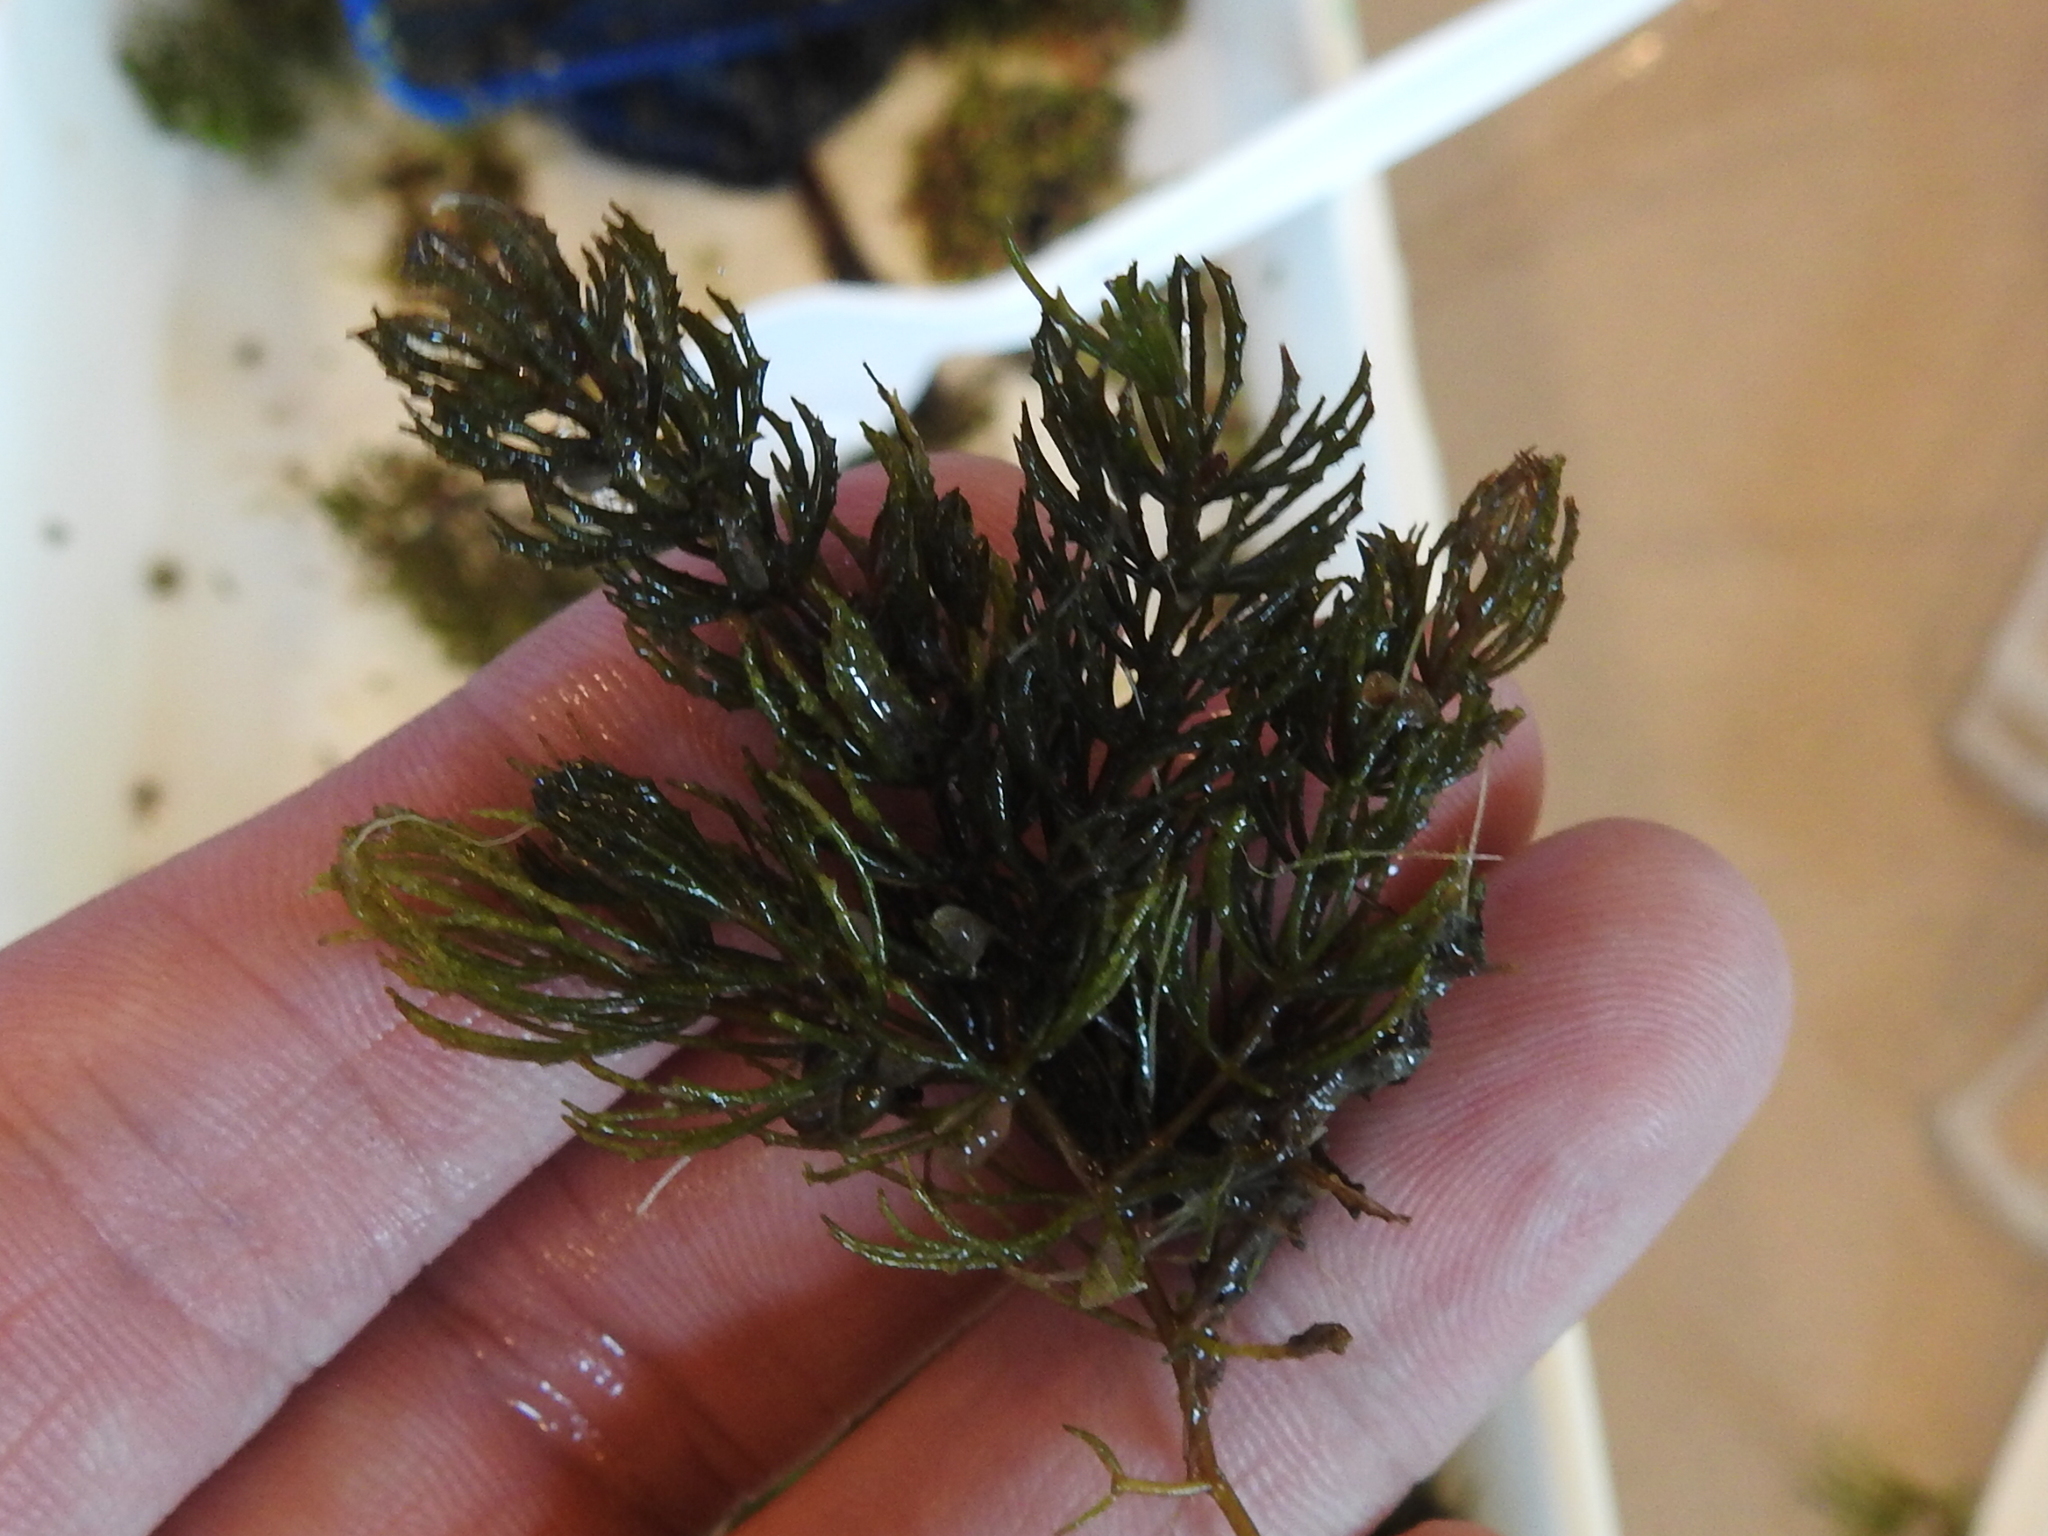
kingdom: Plantae
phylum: Tracheophyta
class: Magnoliopsida
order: Ceratophyllales
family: Ceratophyllaceae
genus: Ceratophyllum
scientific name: Ceratophyllum demersum
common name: Rigid hornwort
